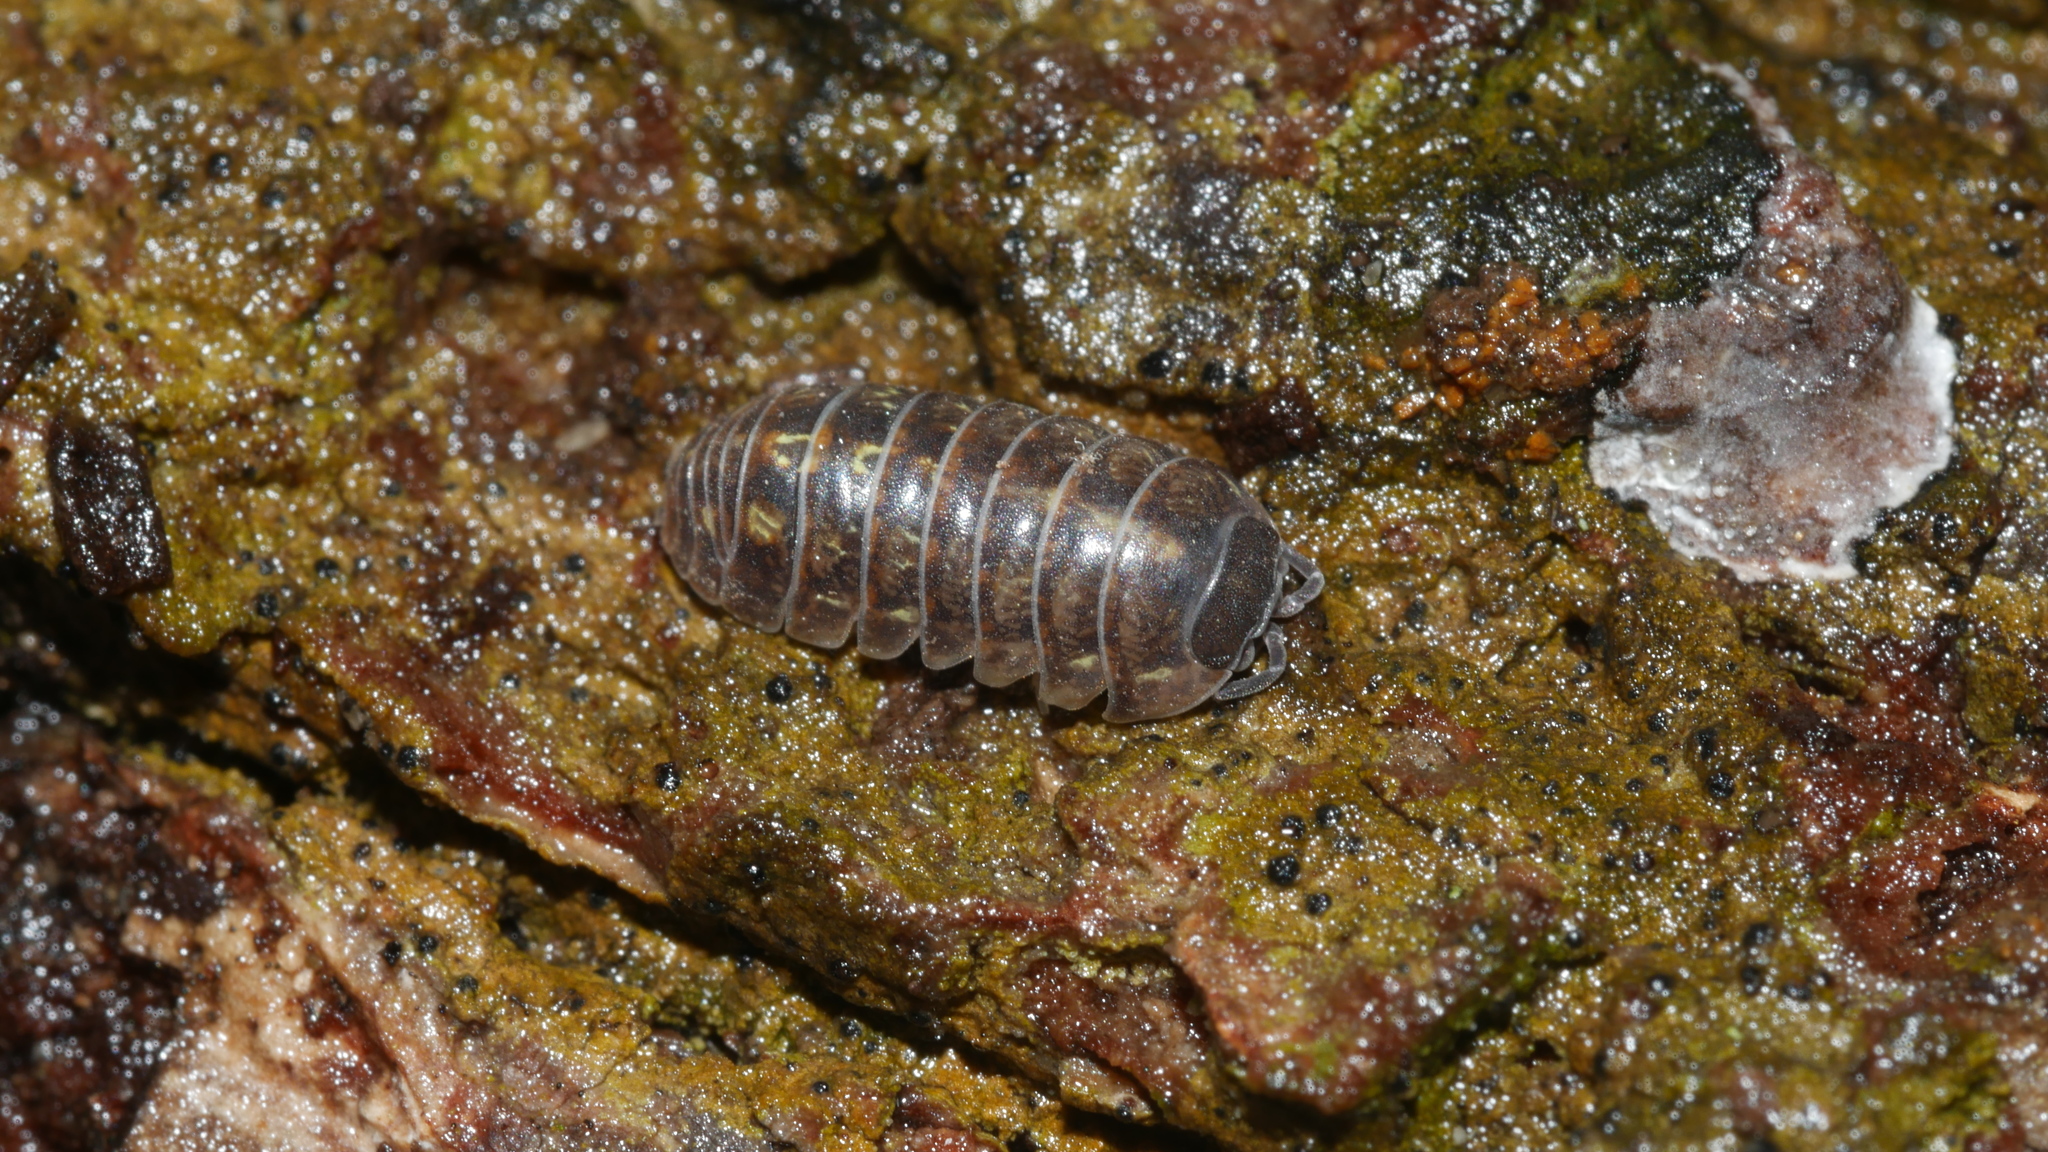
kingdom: Animalia
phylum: Arthropoda
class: Malacostraca
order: Isopoda
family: Armadillidiidae
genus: Armadillidium
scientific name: Armadillidium vulgare
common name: Common pill woodlouse
